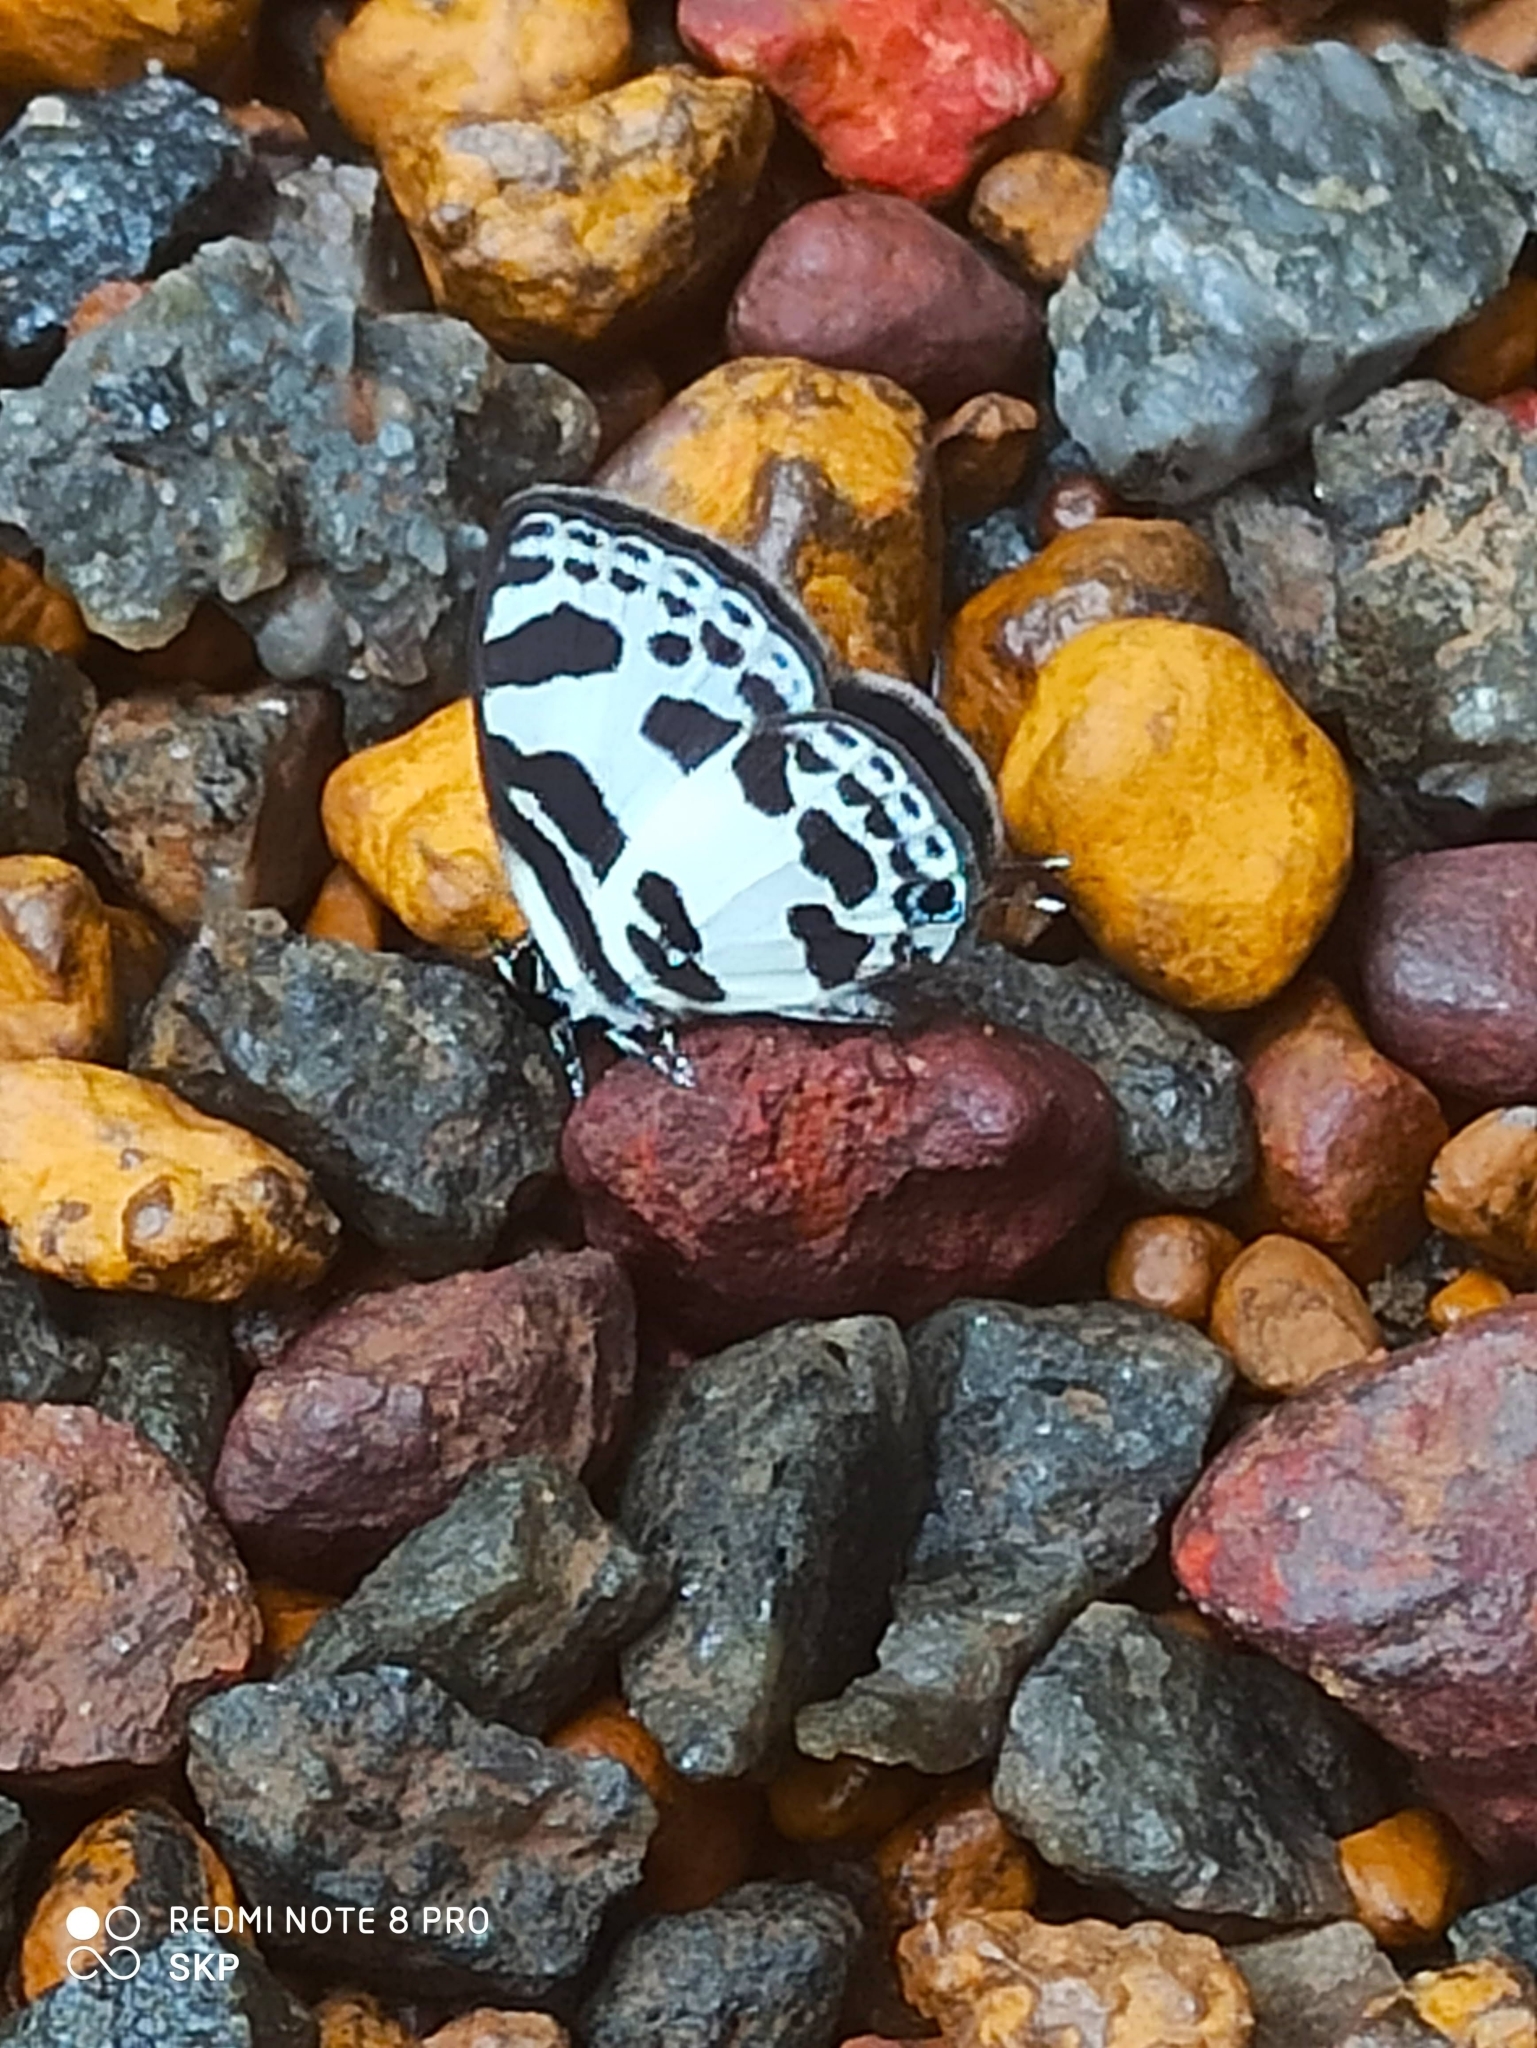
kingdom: Animalia
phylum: Arthropoda
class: Insecta
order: Lepidoptera
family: Lycaenidae
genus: Discolampa
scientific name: Discolampa ethion
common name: Banded blue pierrot
